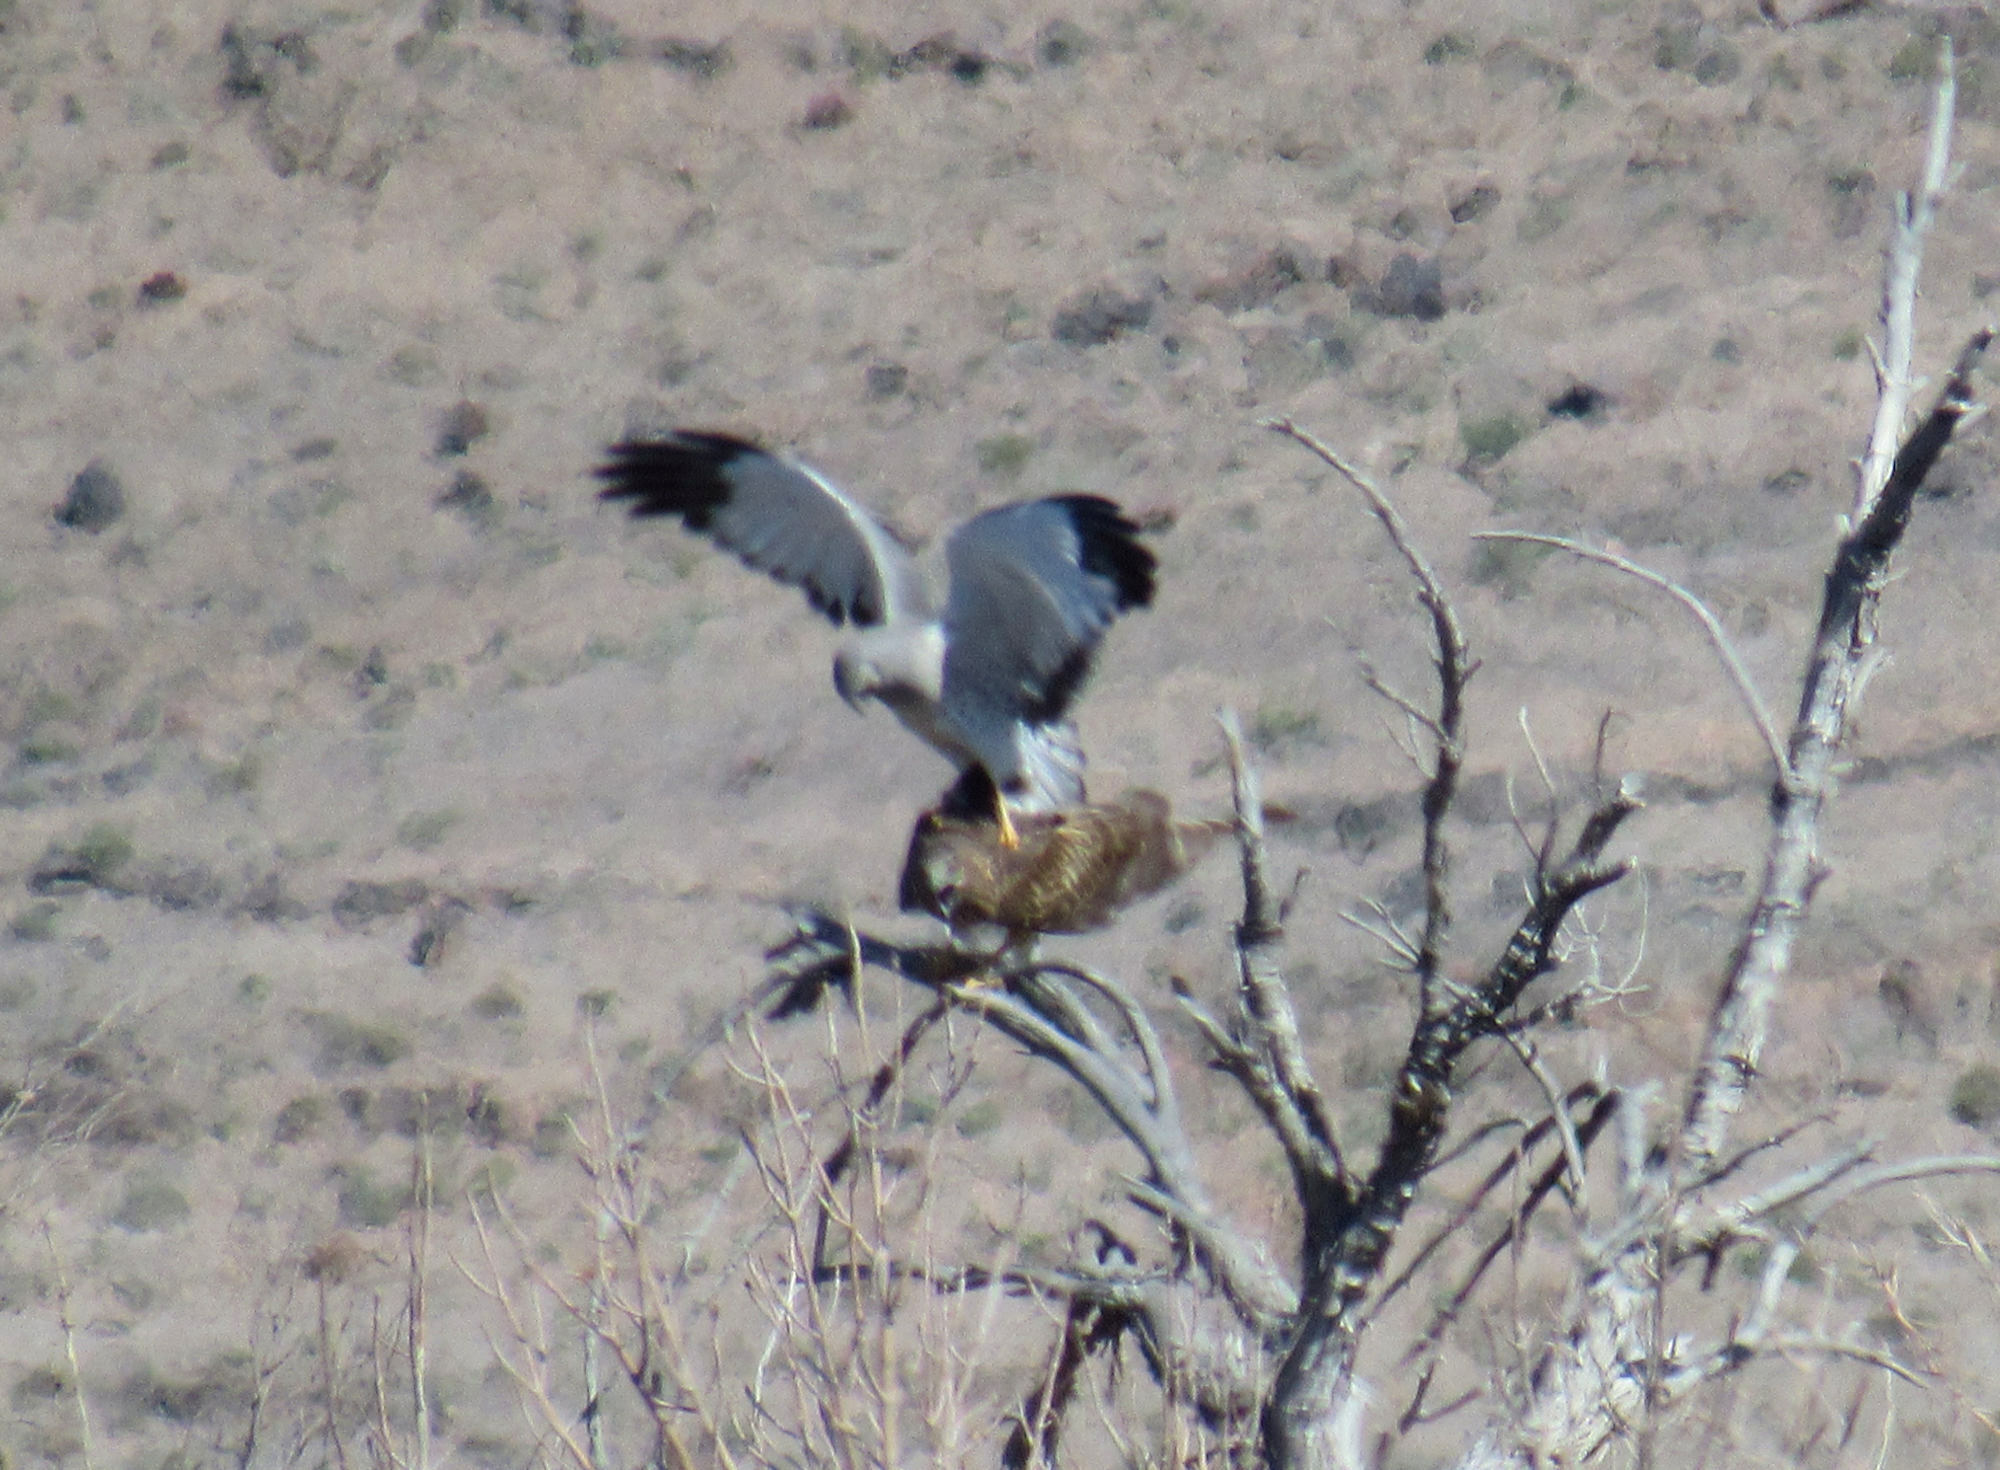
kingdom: Animalia
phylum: Chordata
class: Aves
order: Accipitriformes
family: Accipitridae
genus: Circus
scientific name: Circus cyaneus
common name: Hen harrier
